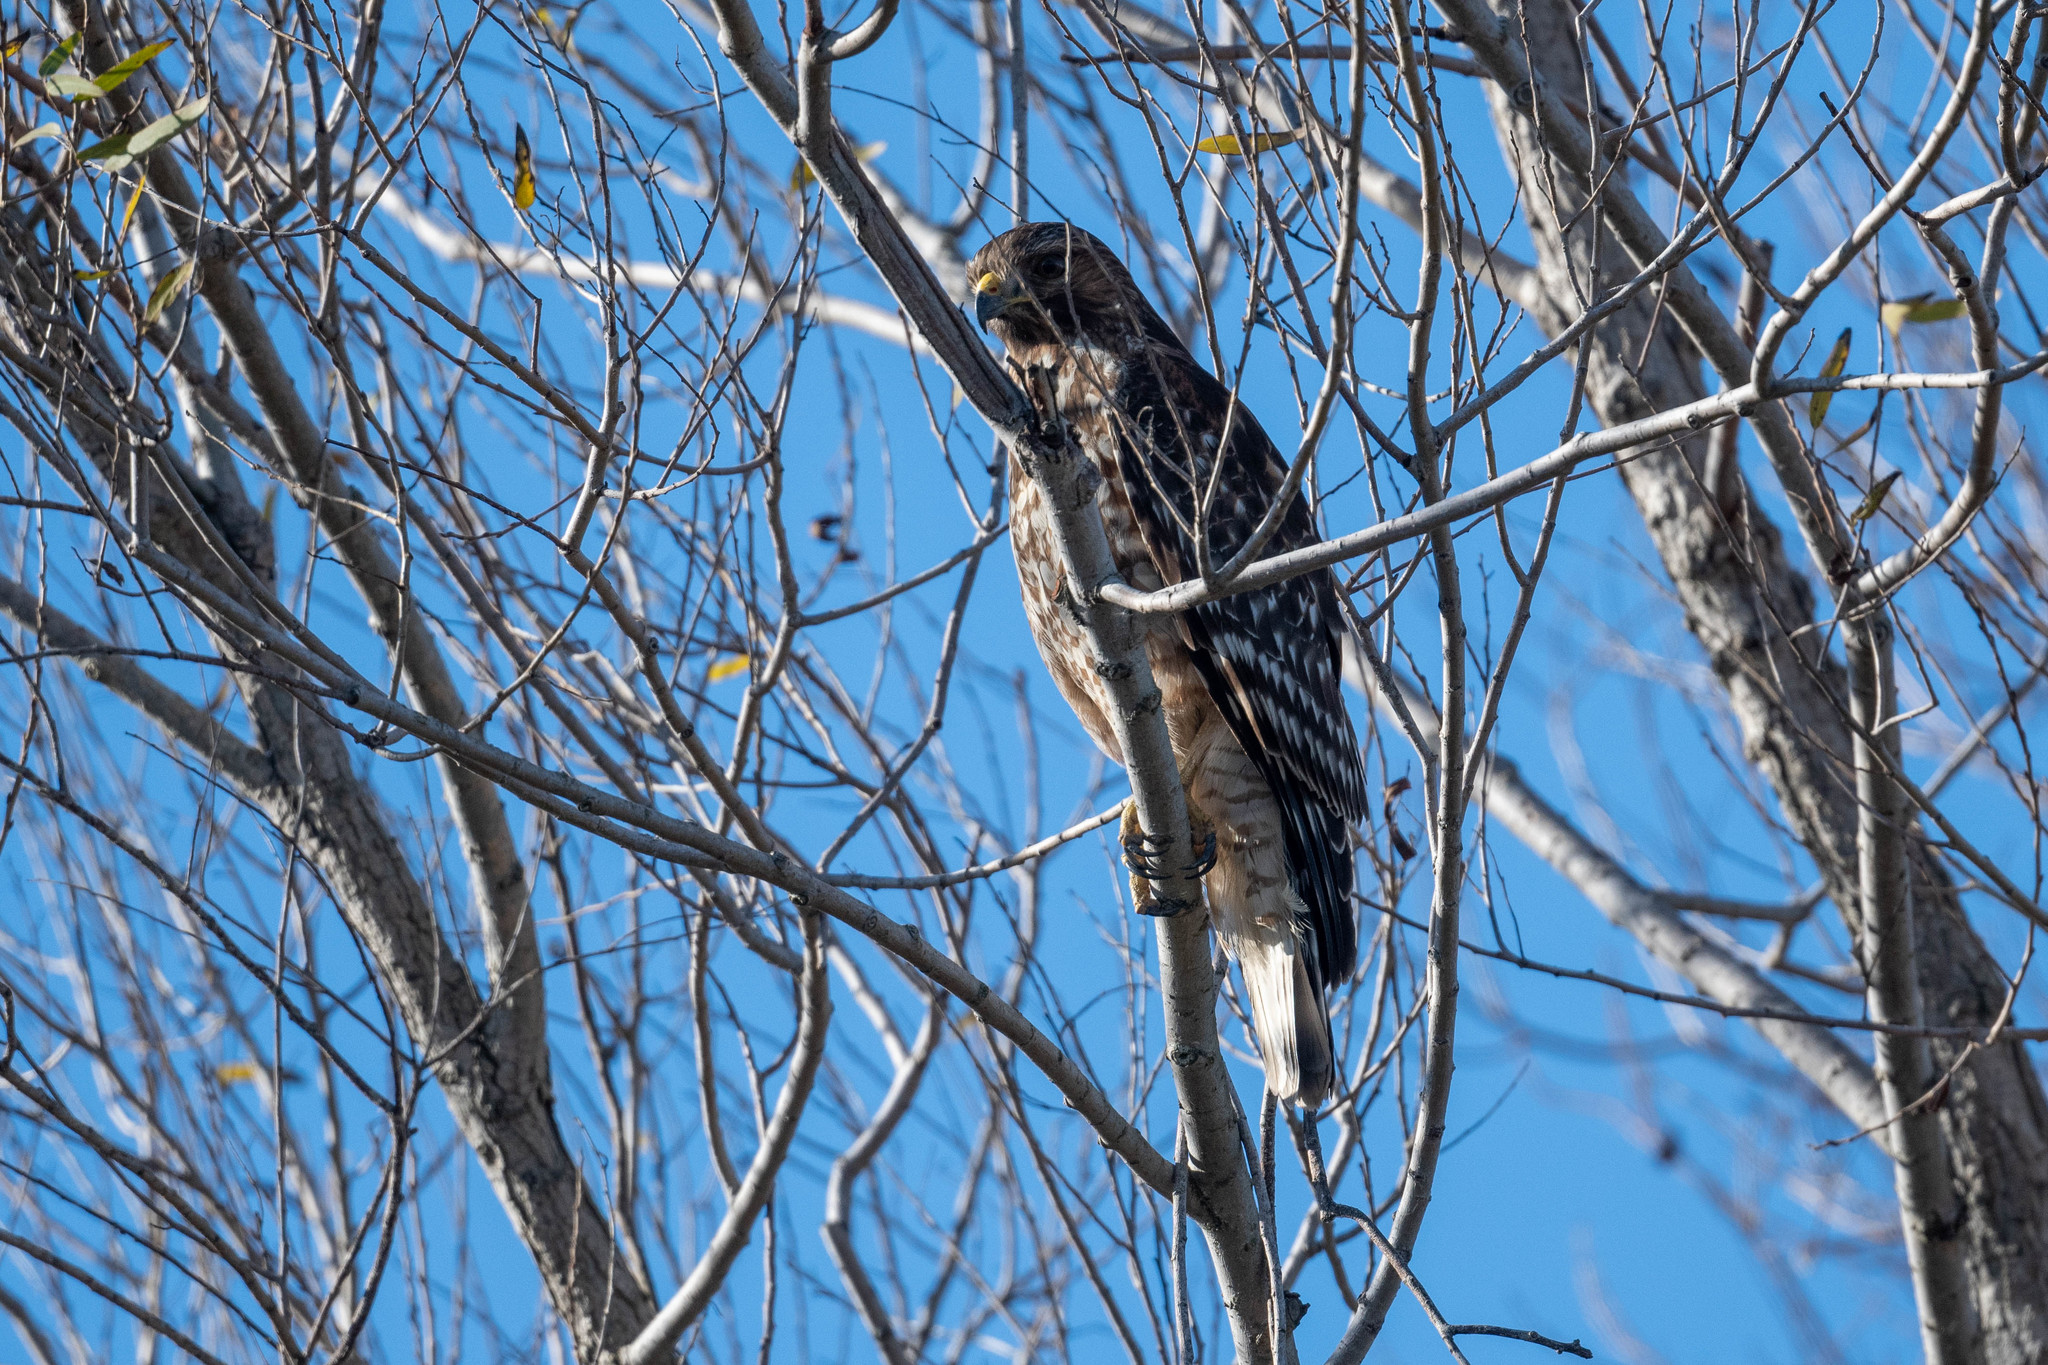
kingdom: Animalia
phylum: Chordata
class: Aves
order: Accipitriformes
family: Accipitridae
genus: Buteo
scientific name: Buteo lineatus
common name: Red-shouldered hawk
